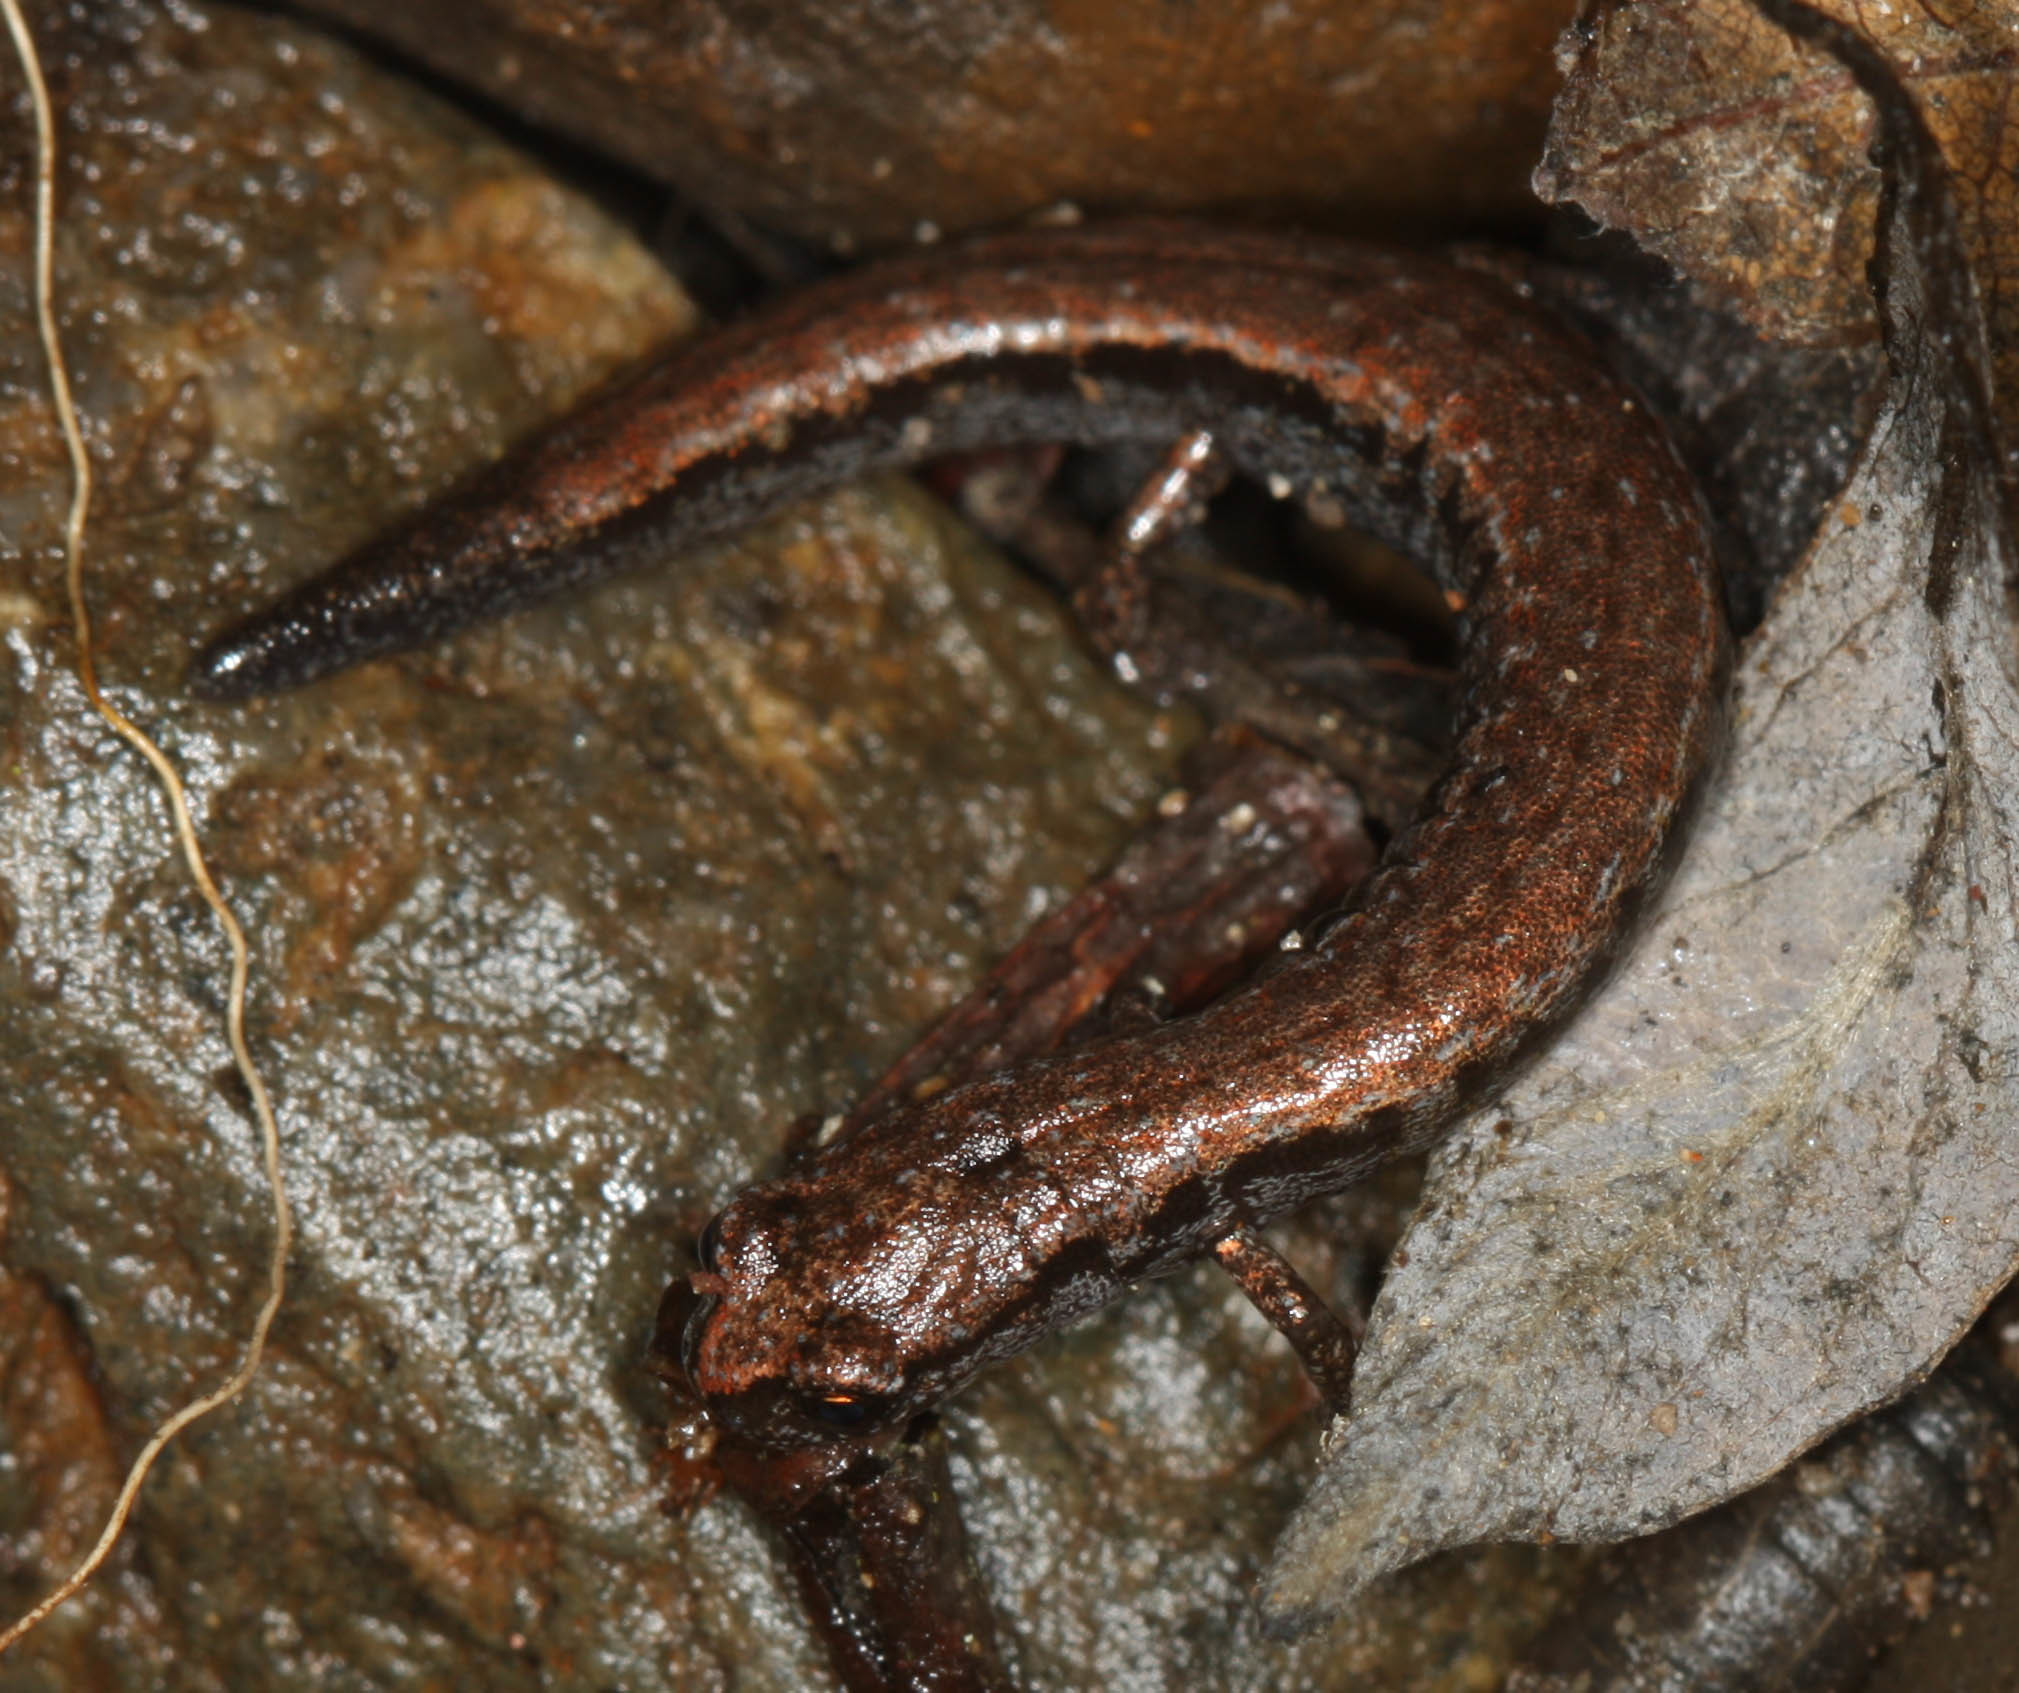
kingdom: Animalia
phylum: Chordata
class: Amphibia
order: Caudata
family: Plethodontidae
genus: Batrachoseps
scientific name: Batrachoseps attenuatus
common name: California slender salamander
